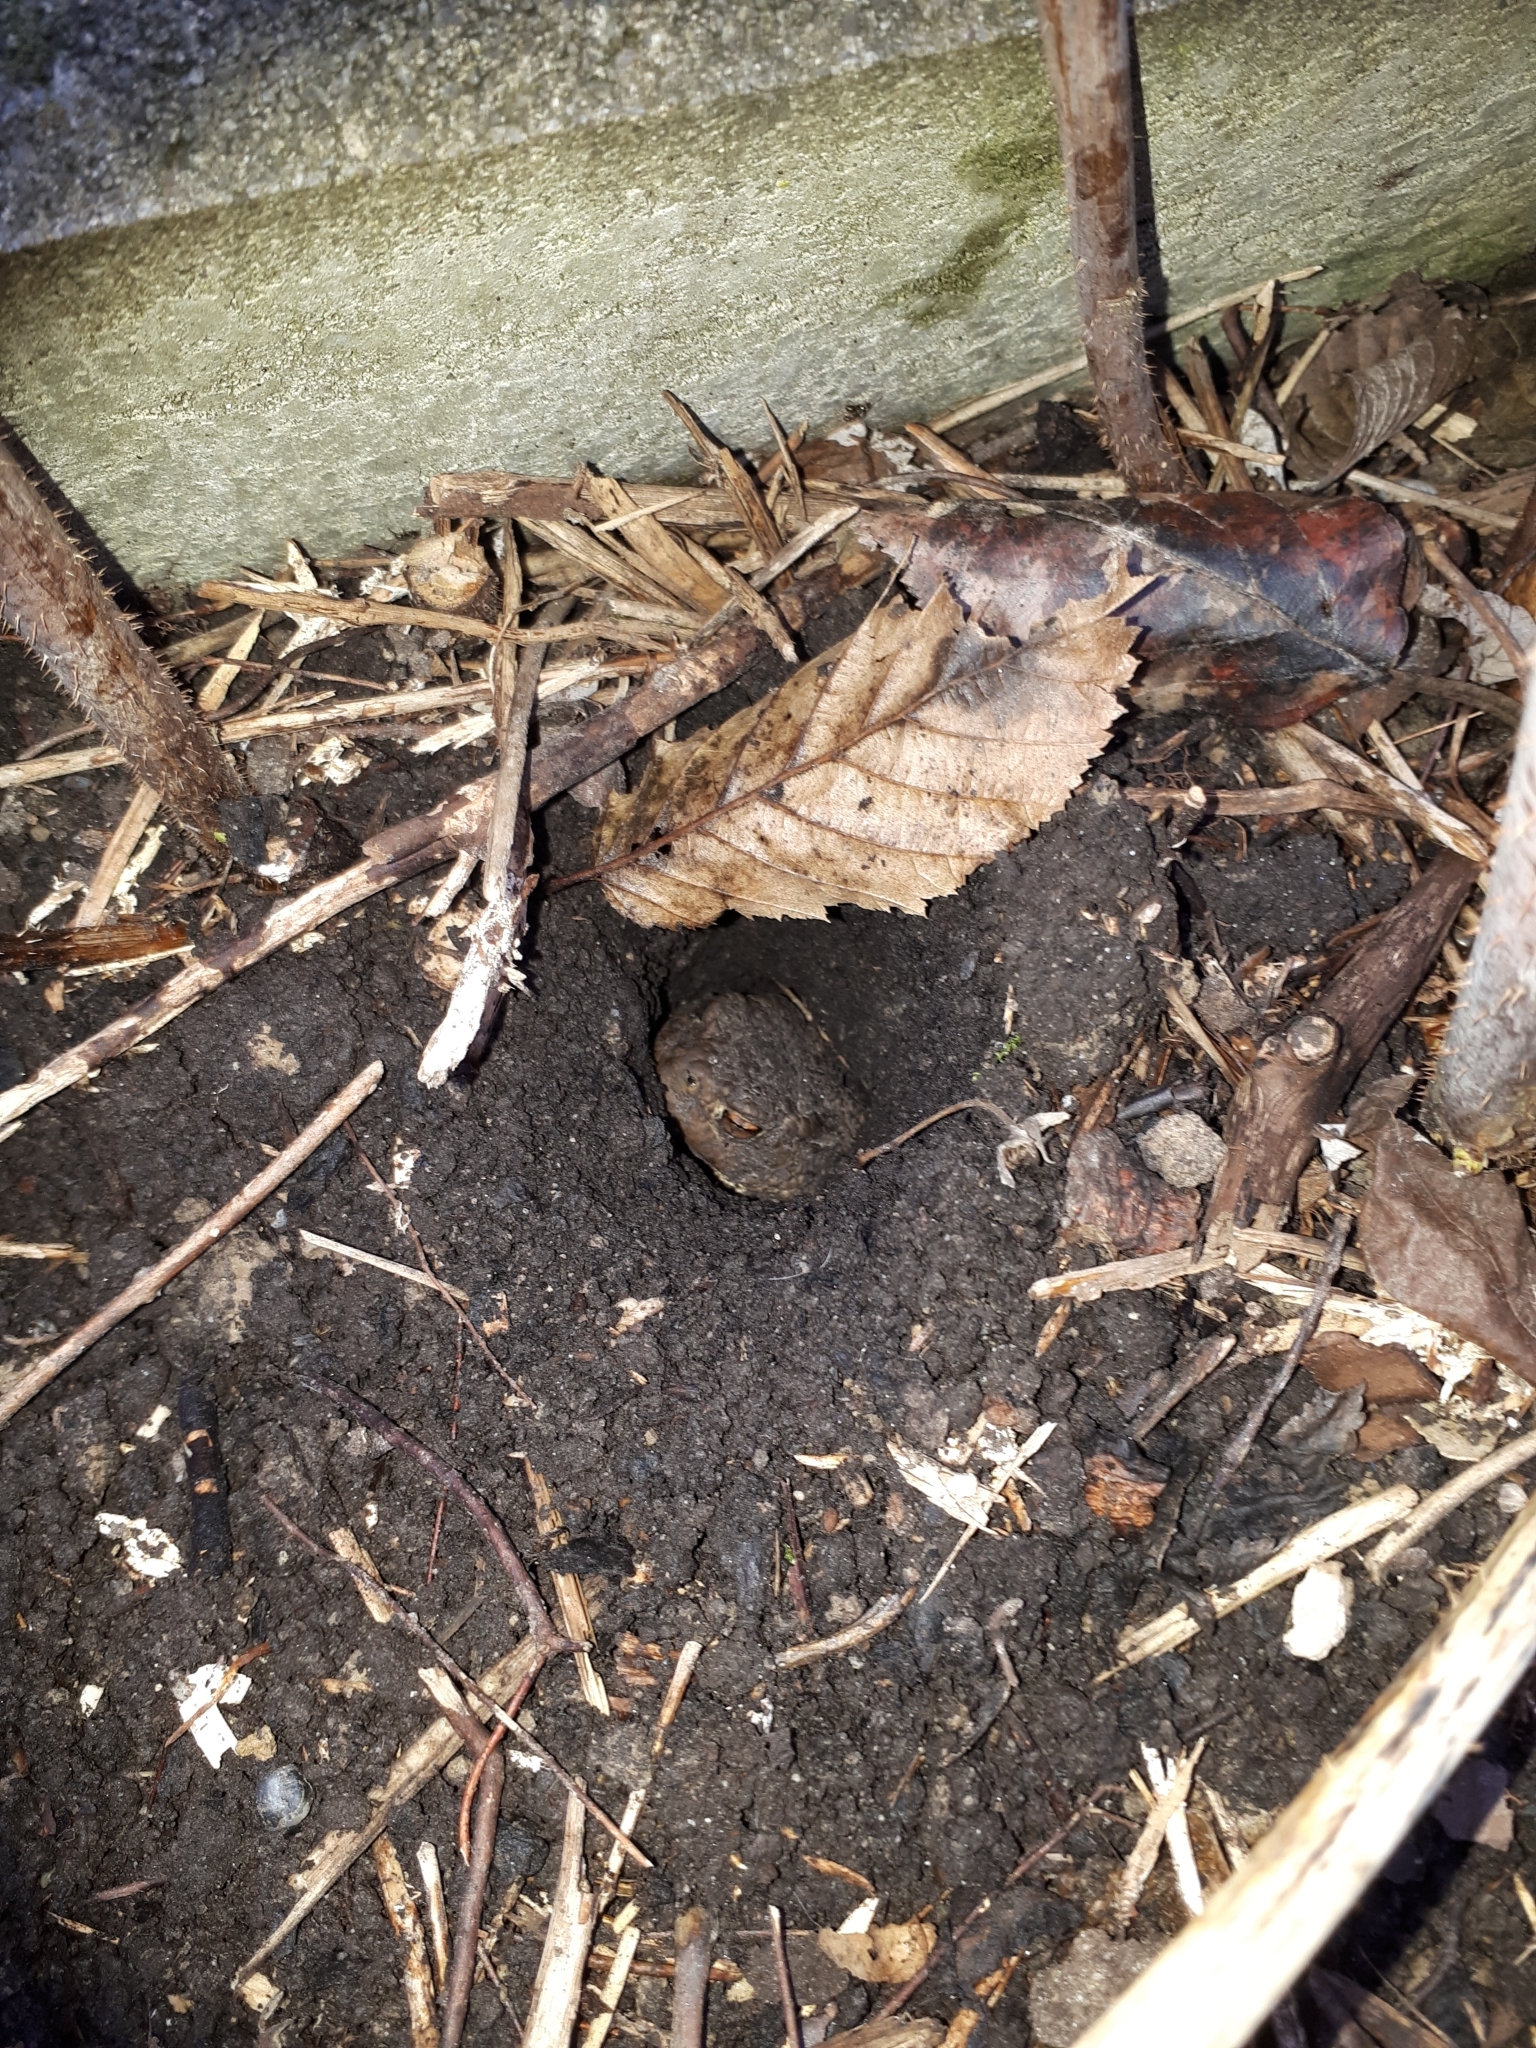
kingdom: Animalia
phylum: Chordata
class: Amphibia
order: Anura
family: Bufonidae
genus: Bufo
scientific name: Bufo bufo
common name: Common toad
